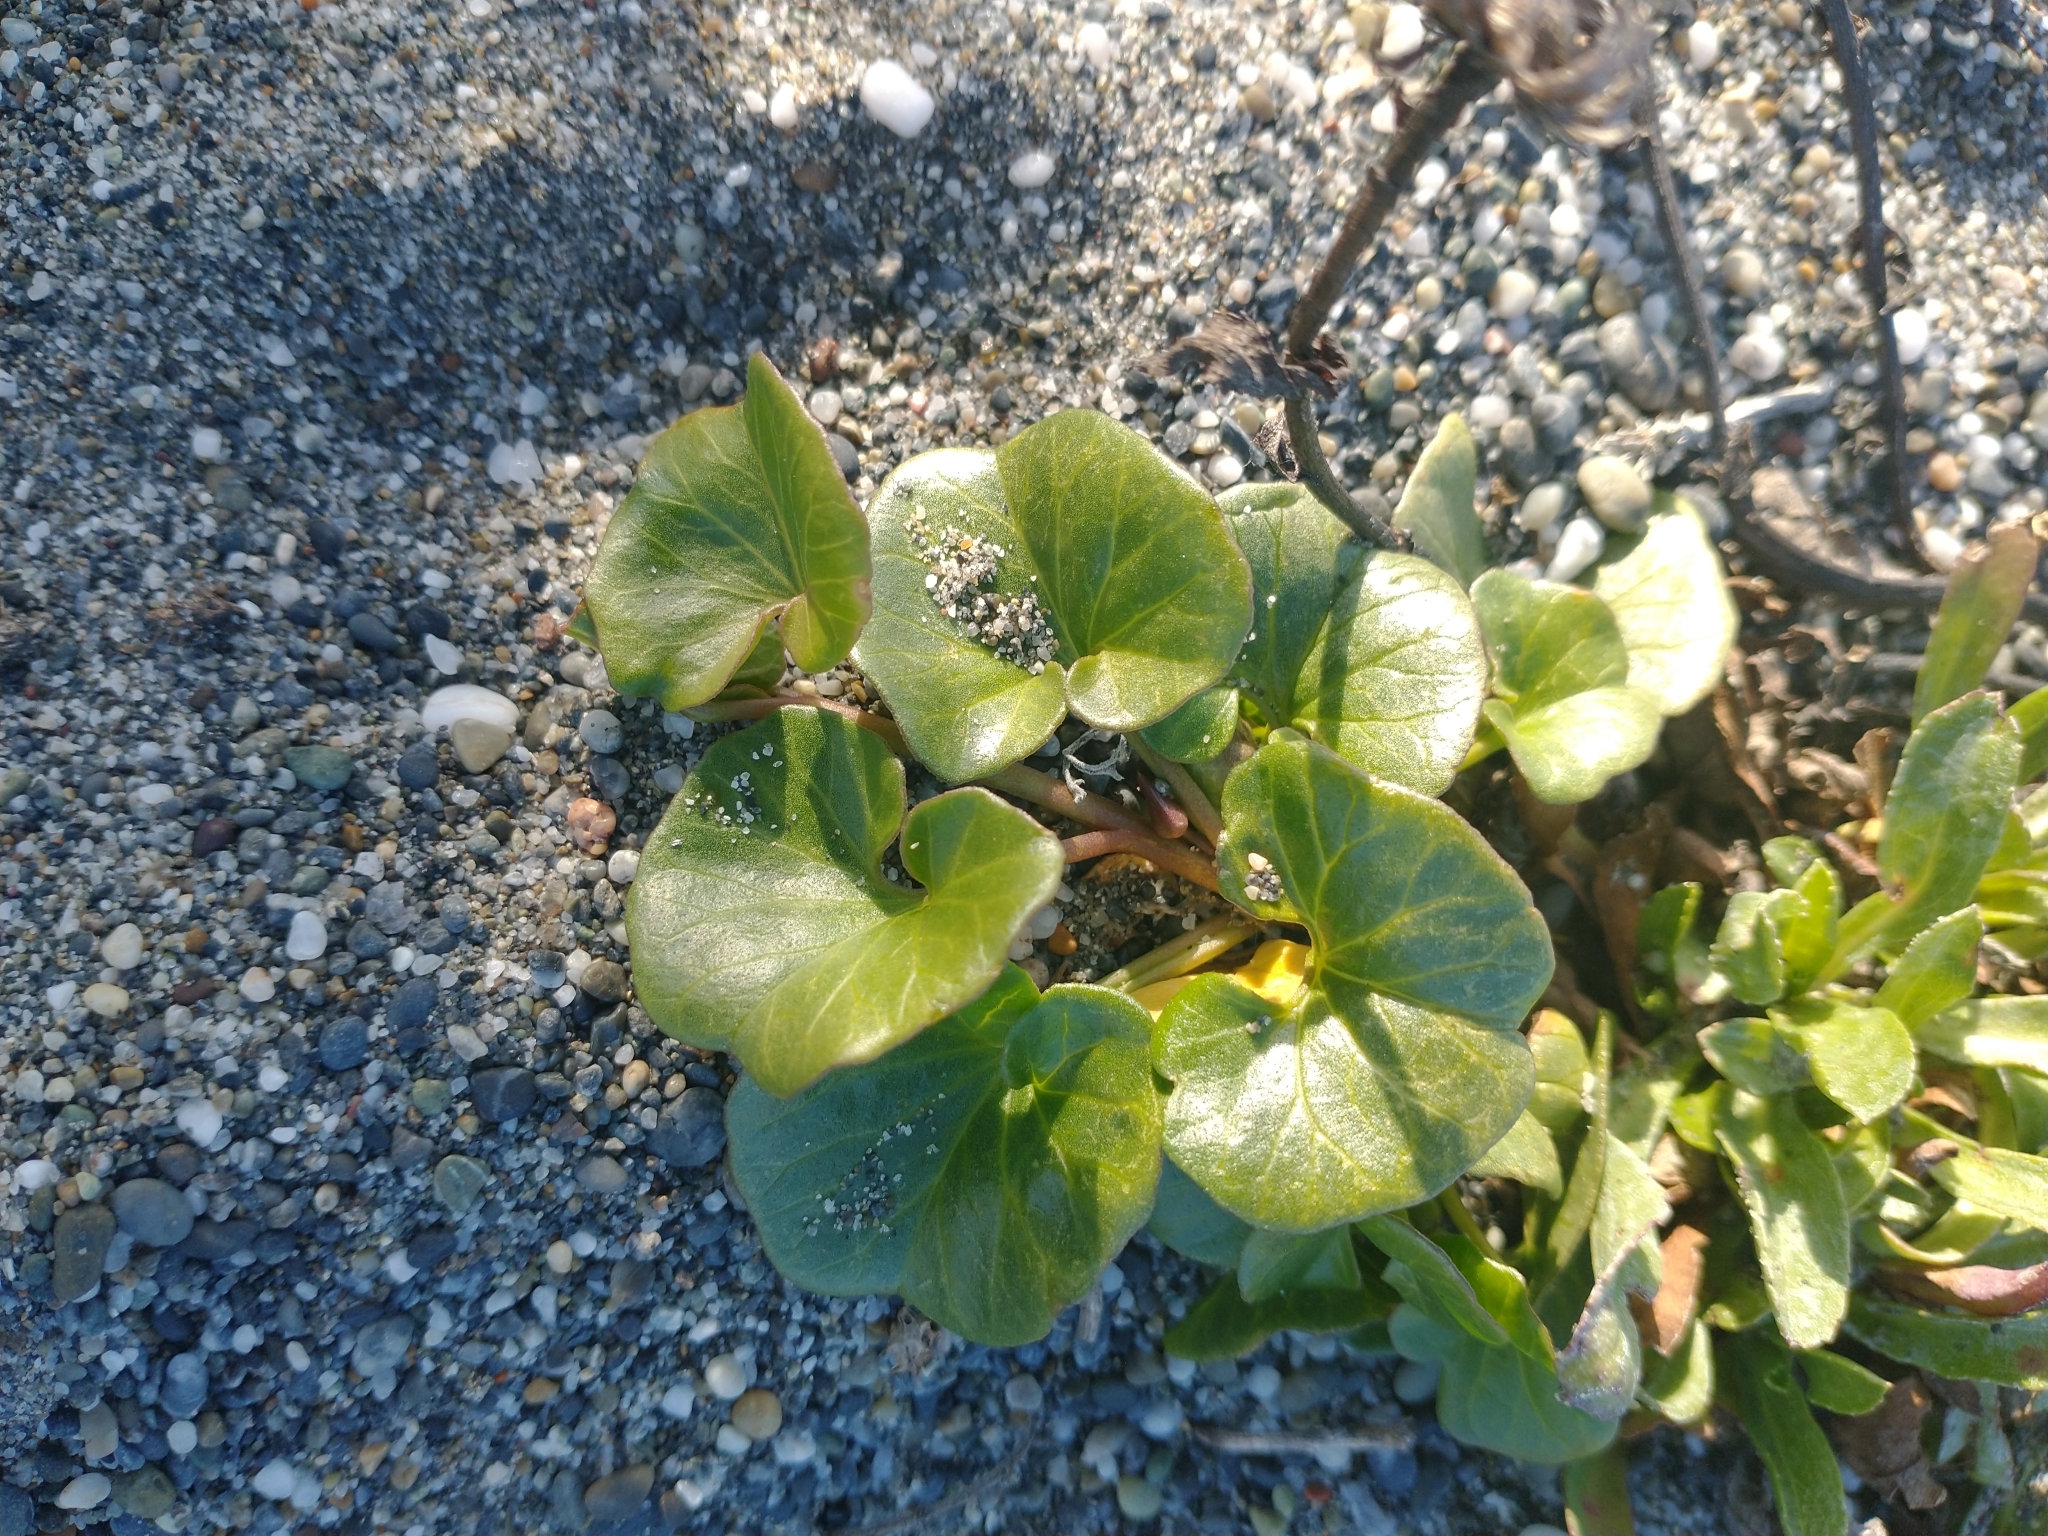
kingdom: Plantae
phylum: Tracheophyta
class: Magnoliopsida
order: Solanales
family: Convolvulaceae
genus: Calystegia
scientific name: Calystegia soldanella
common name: Sea bindweed
